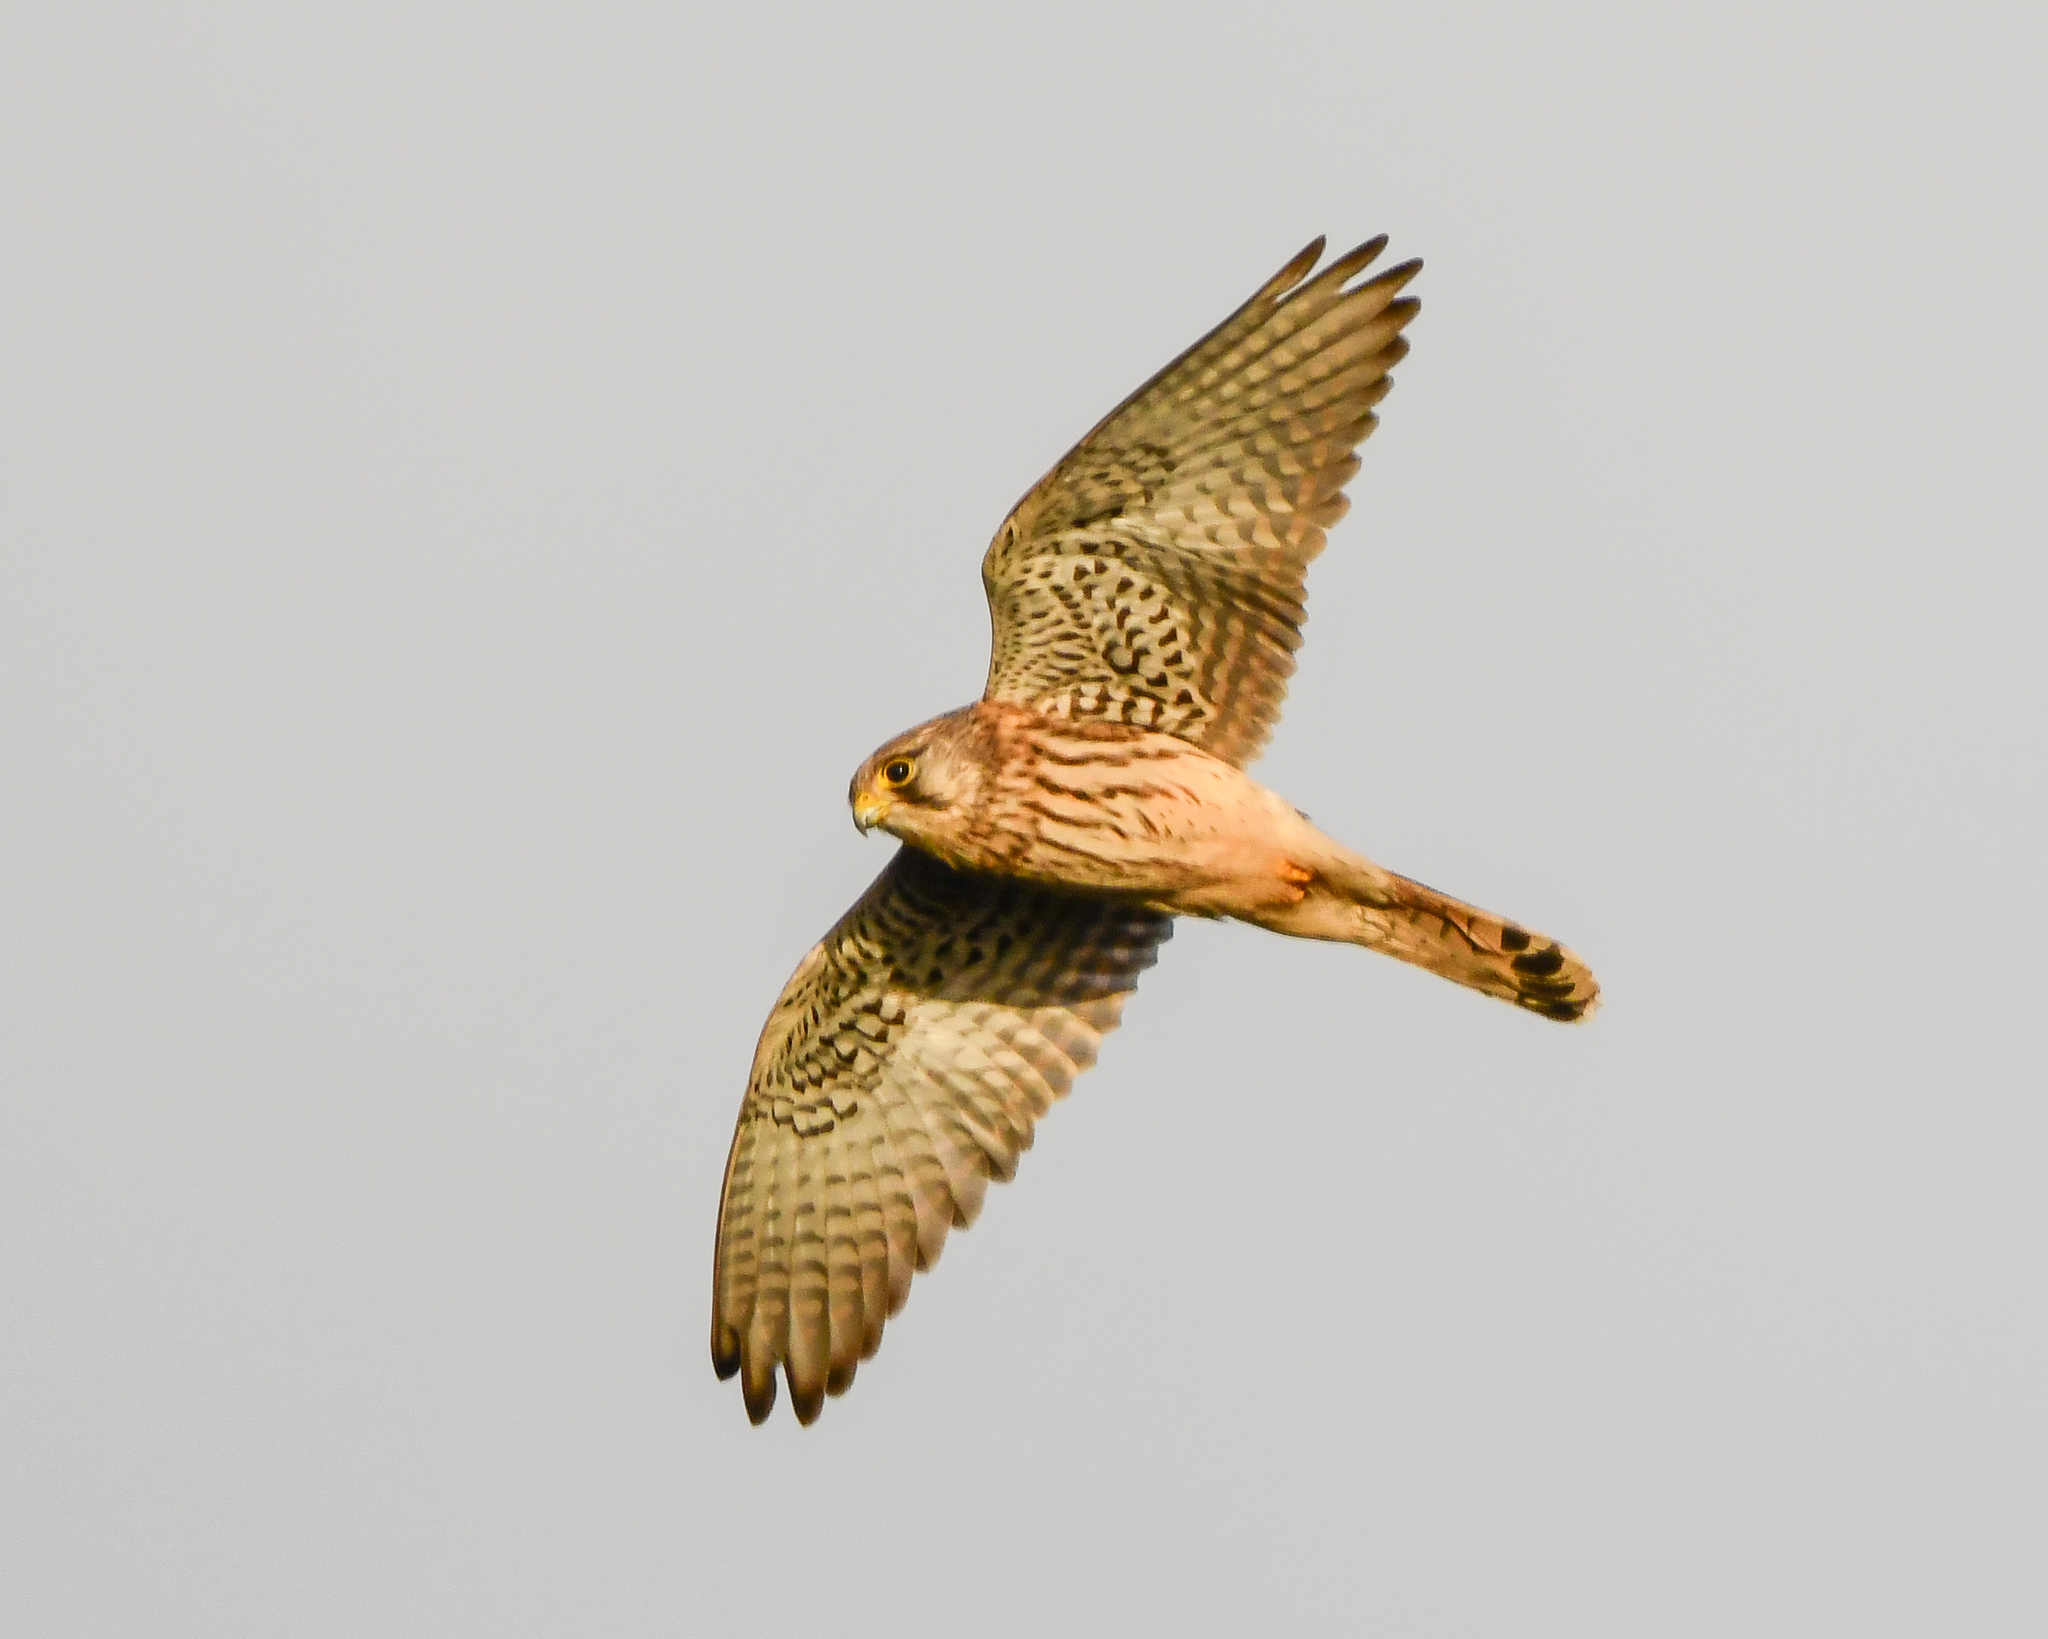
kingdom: Animalia
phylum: Chordata
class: Aves
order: Falconiformes
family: Falconidae
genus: Falco
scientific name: Falco tinnunculus
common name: Common kestrel
